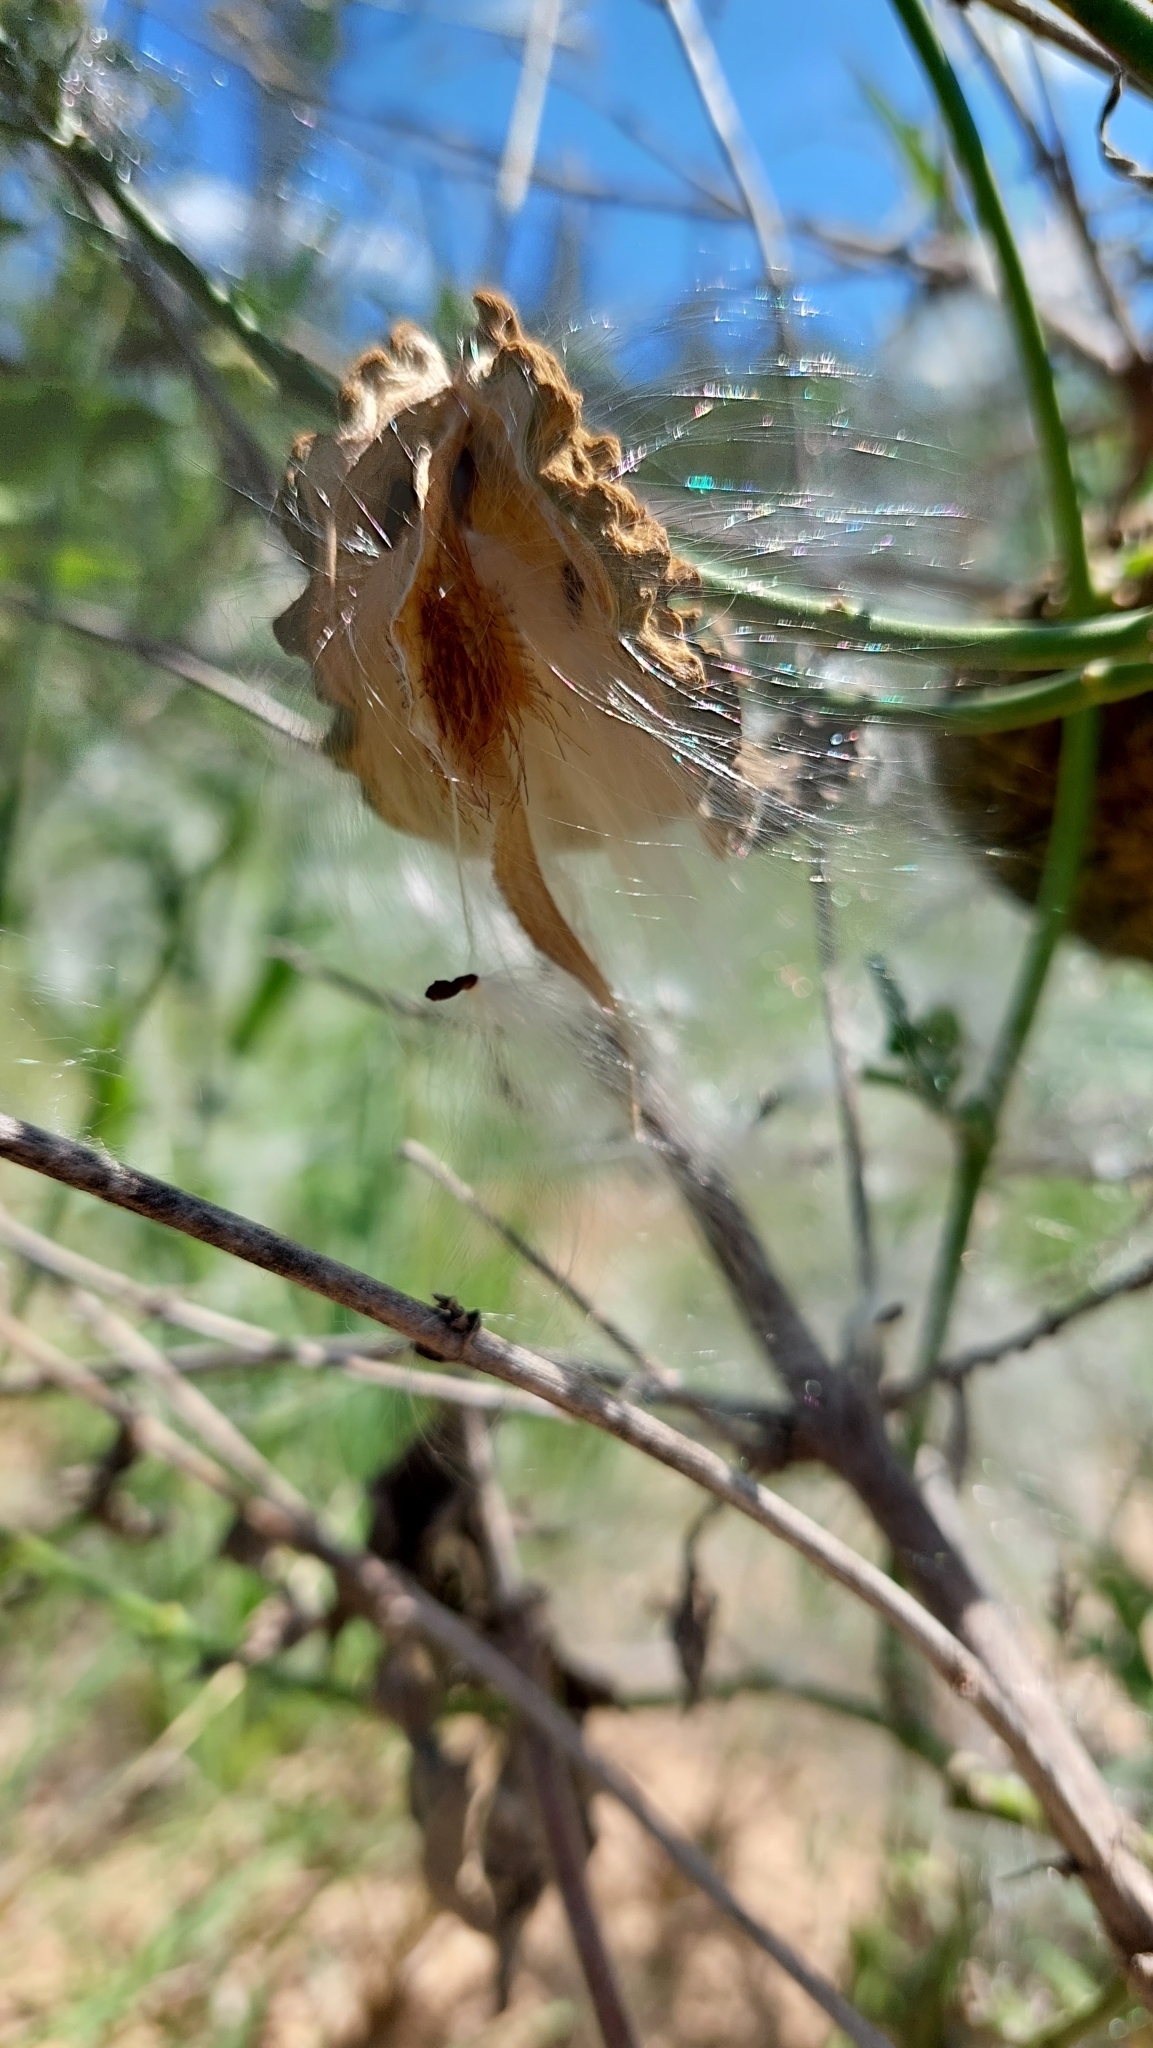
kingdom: Plantae
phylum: Tracheophyta
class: Magnoliopsida
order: Gentianales
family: Apocynaceae
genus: Araujia
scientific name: Araujia brachystephana
